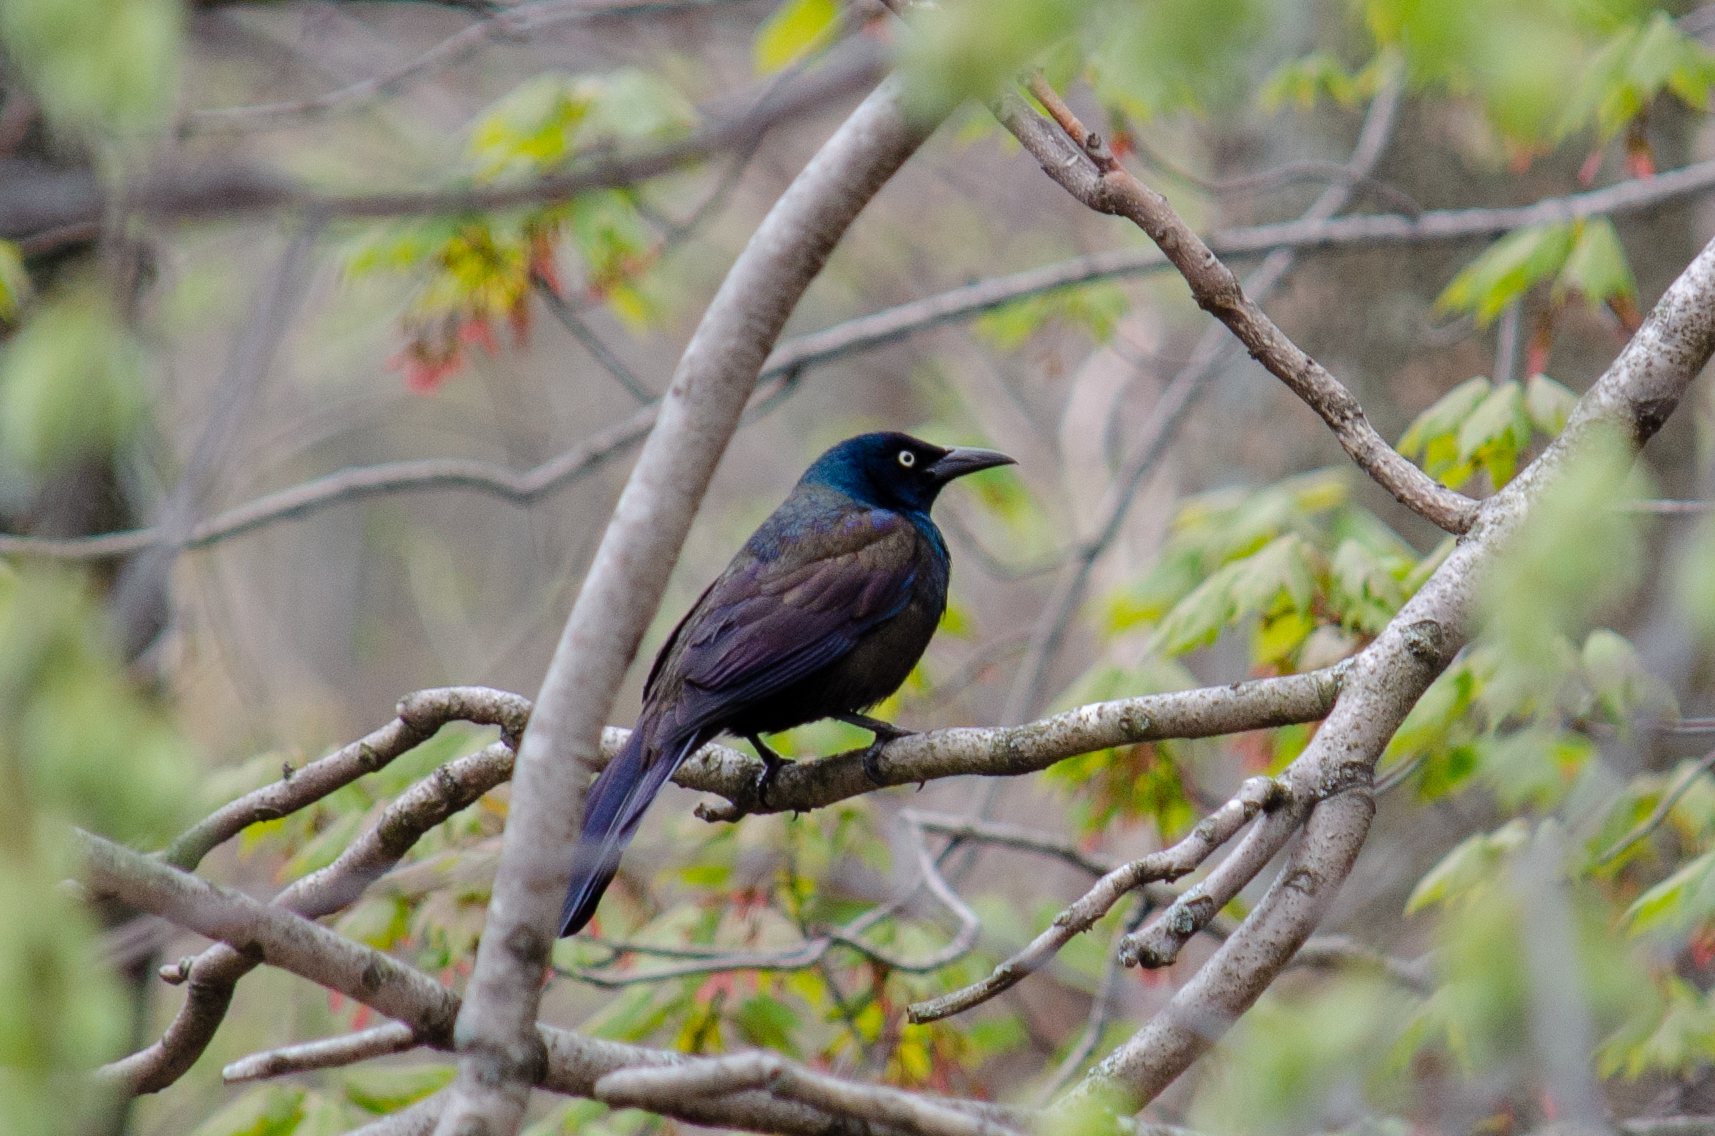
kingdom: Animalia
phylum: Chordata
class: Aves
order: Passeriformes
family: Icteridae
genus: Quiscalus
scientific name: Quiscalus quiscula
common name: Common grackle
